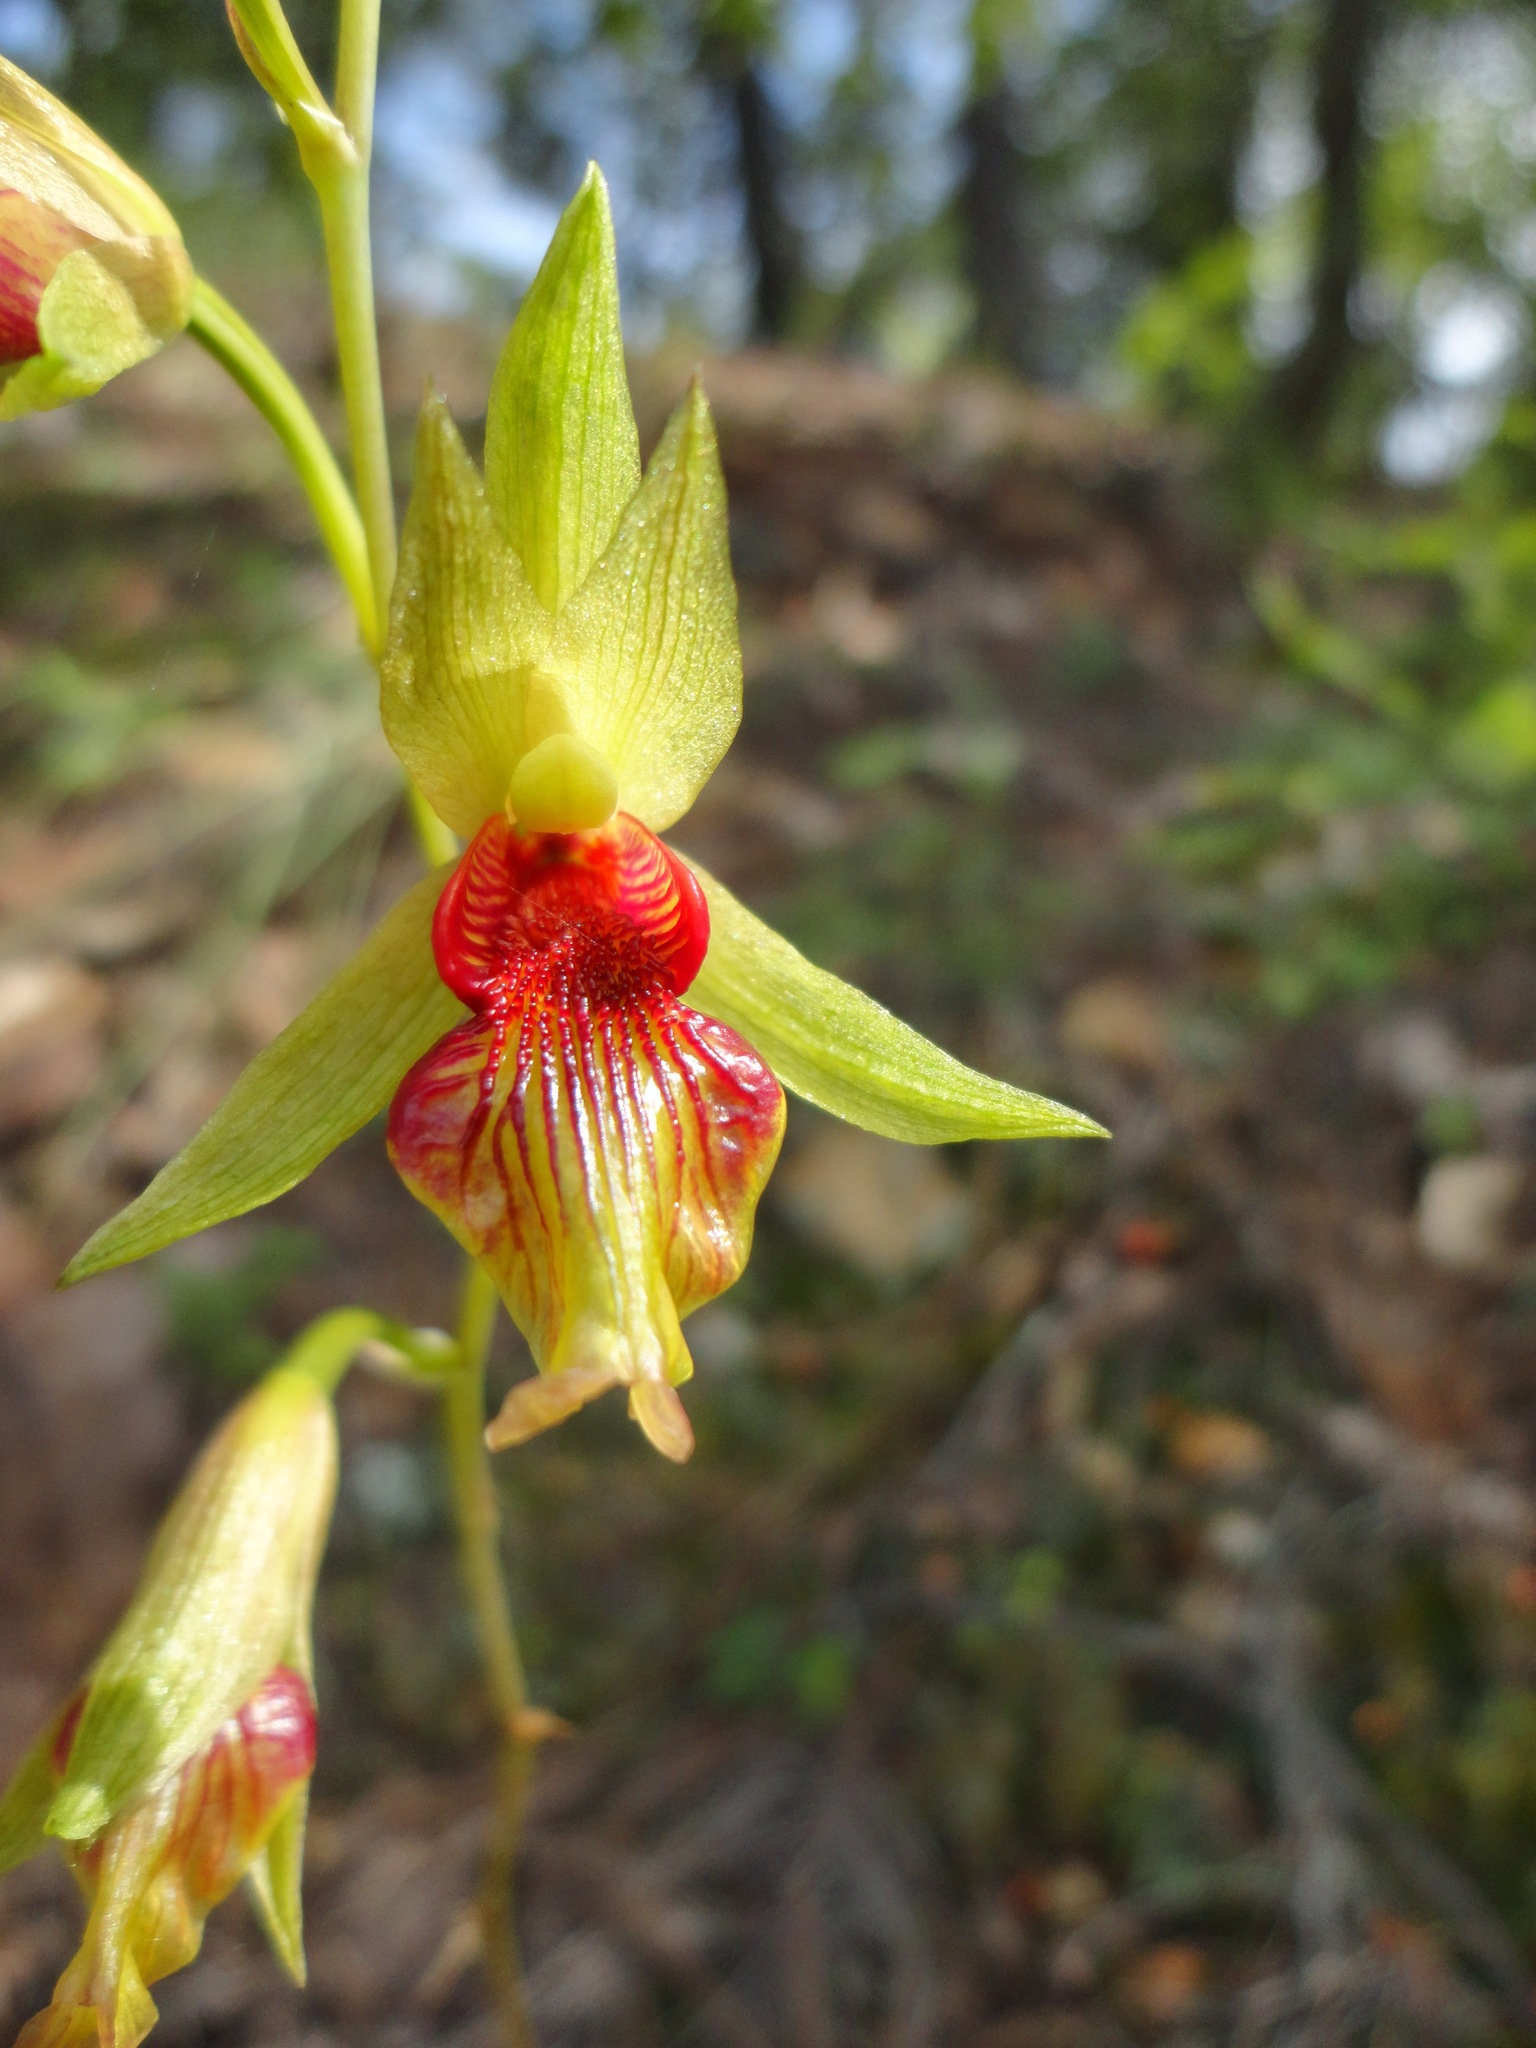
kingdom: Plantae
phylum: Tracheophyta
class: Liliopsida
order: Asparagales
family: Orchidaceae
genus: Bletia
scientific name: Bletia roezlii
